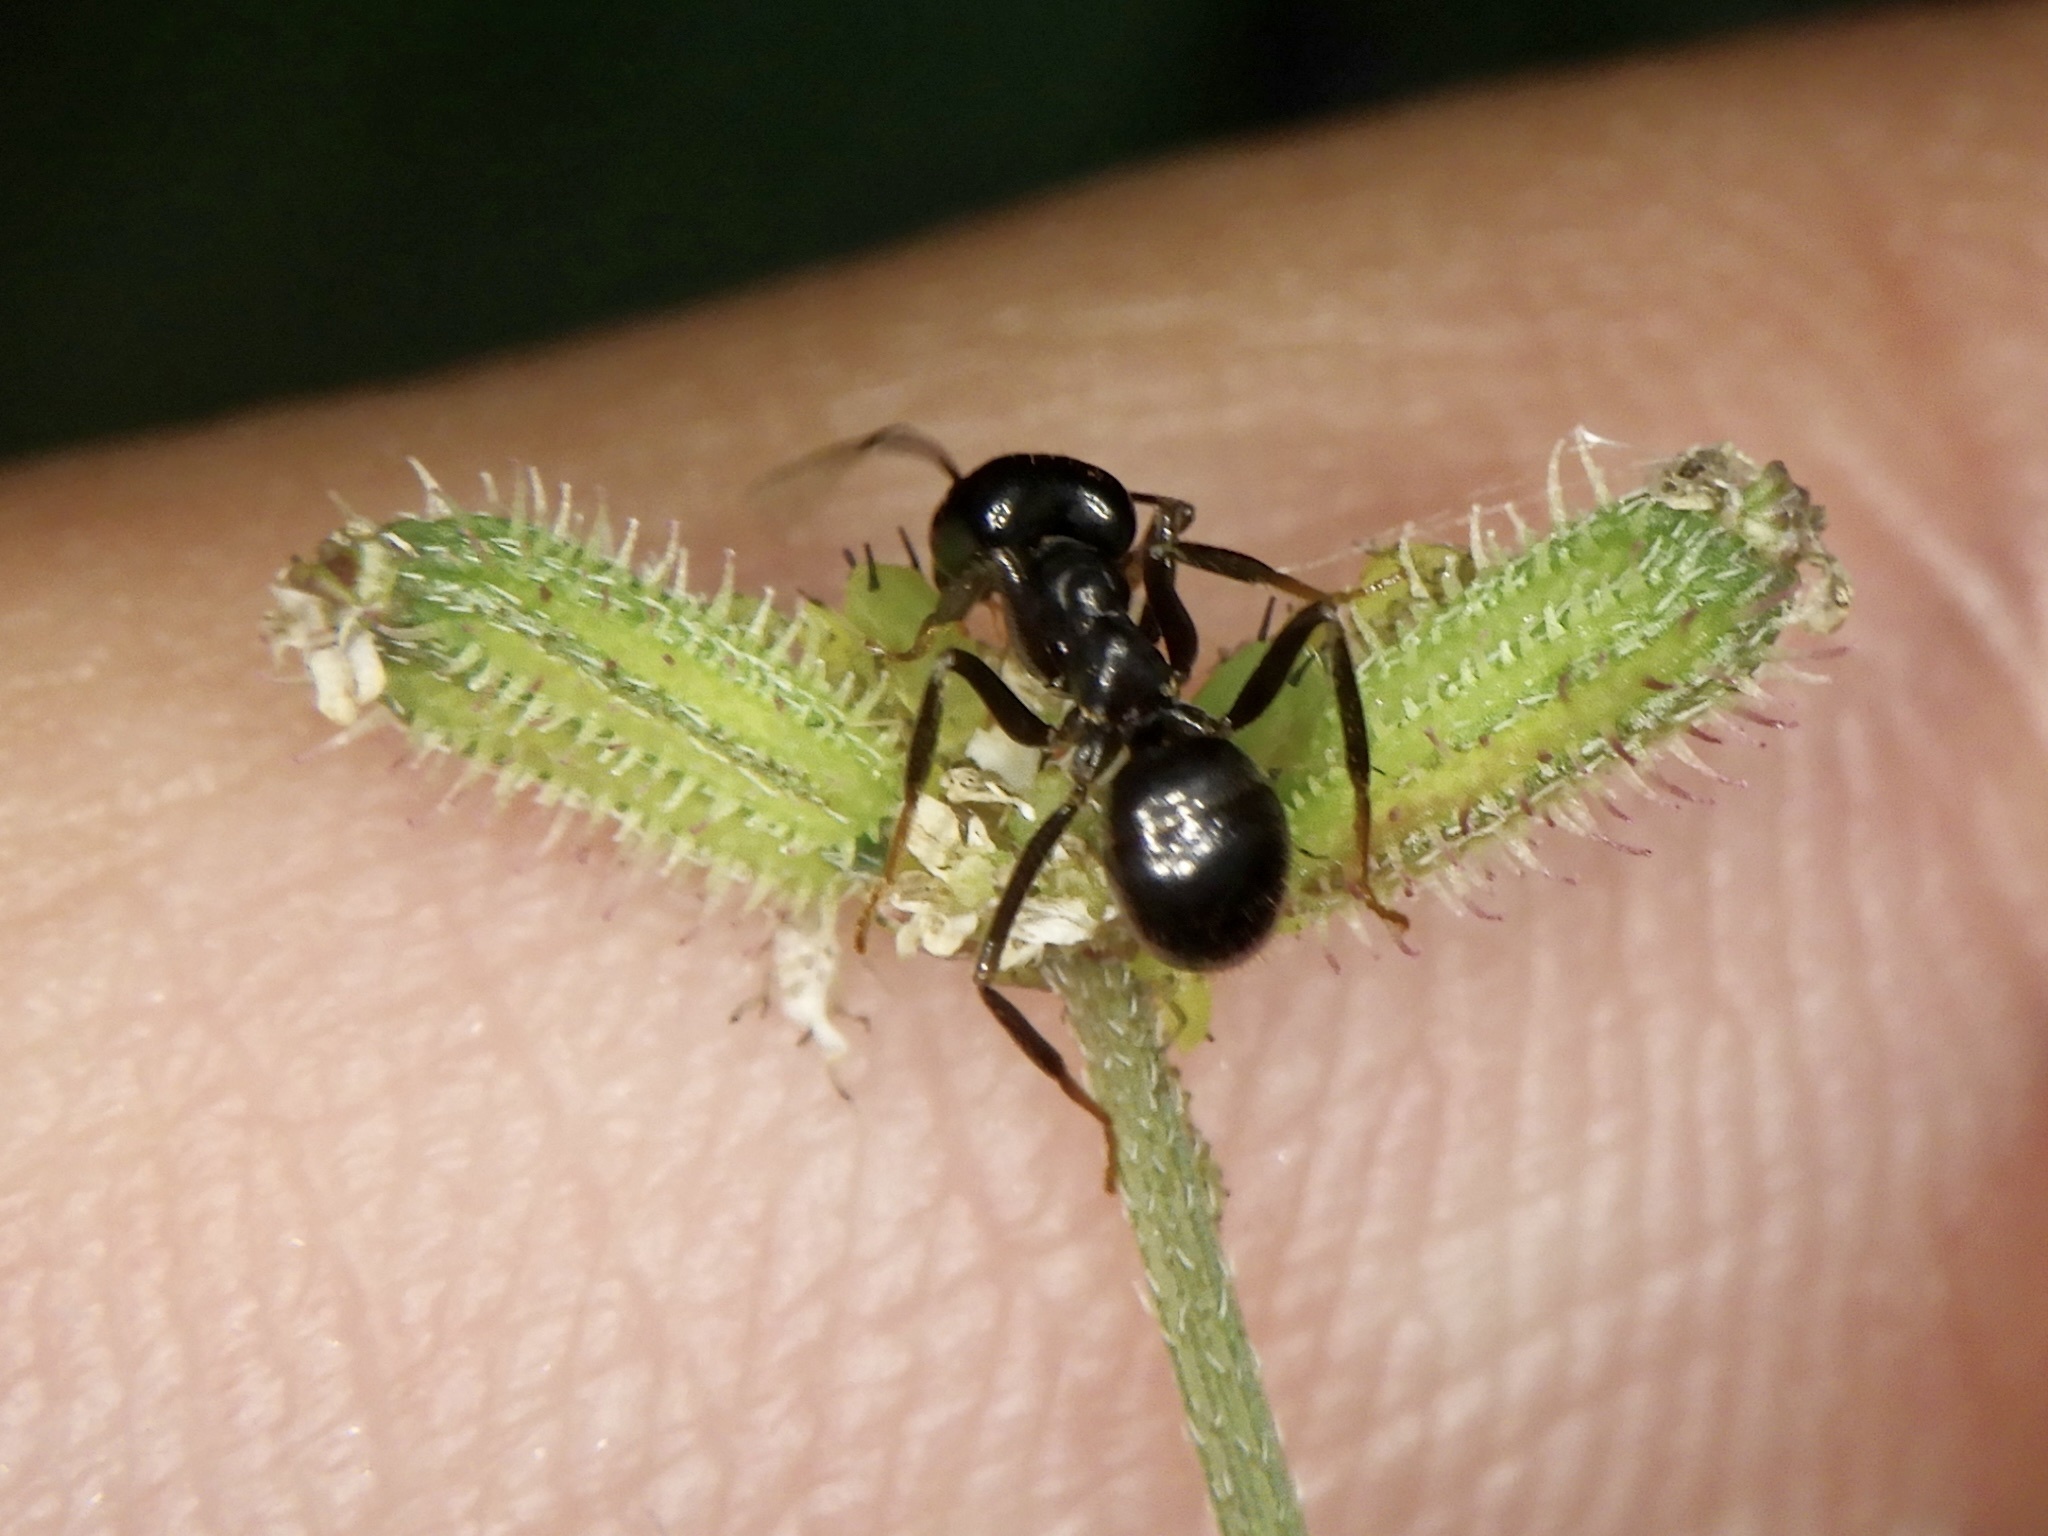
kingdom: Animalia
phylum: Arthropoda
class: Insecta
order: Hymenoptera
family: Formicidae
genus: Lasius
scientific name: Lasius spathepus
